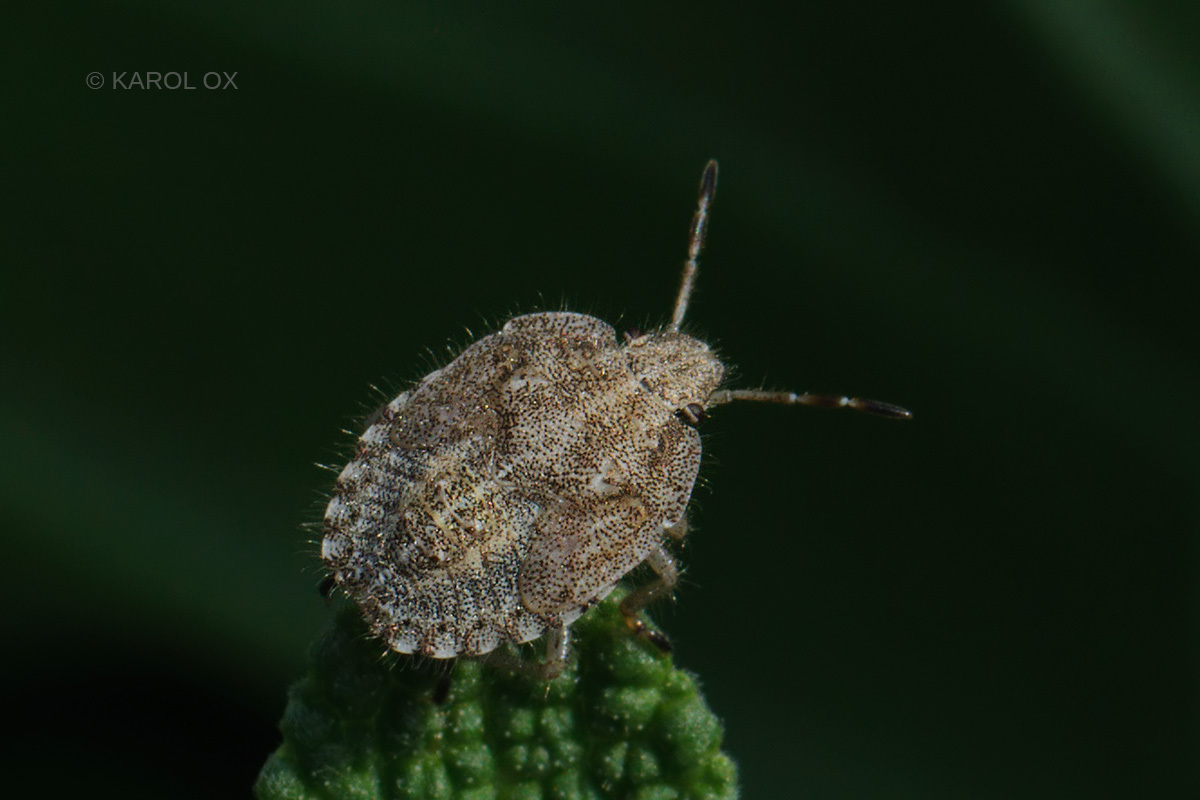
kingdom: Animalia
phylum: Arthropoda
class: Insecta
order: Hemiptera
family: Pentatomidae
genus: Dolycoris
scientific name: Dolycoris baccarum
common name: Sloe bug
